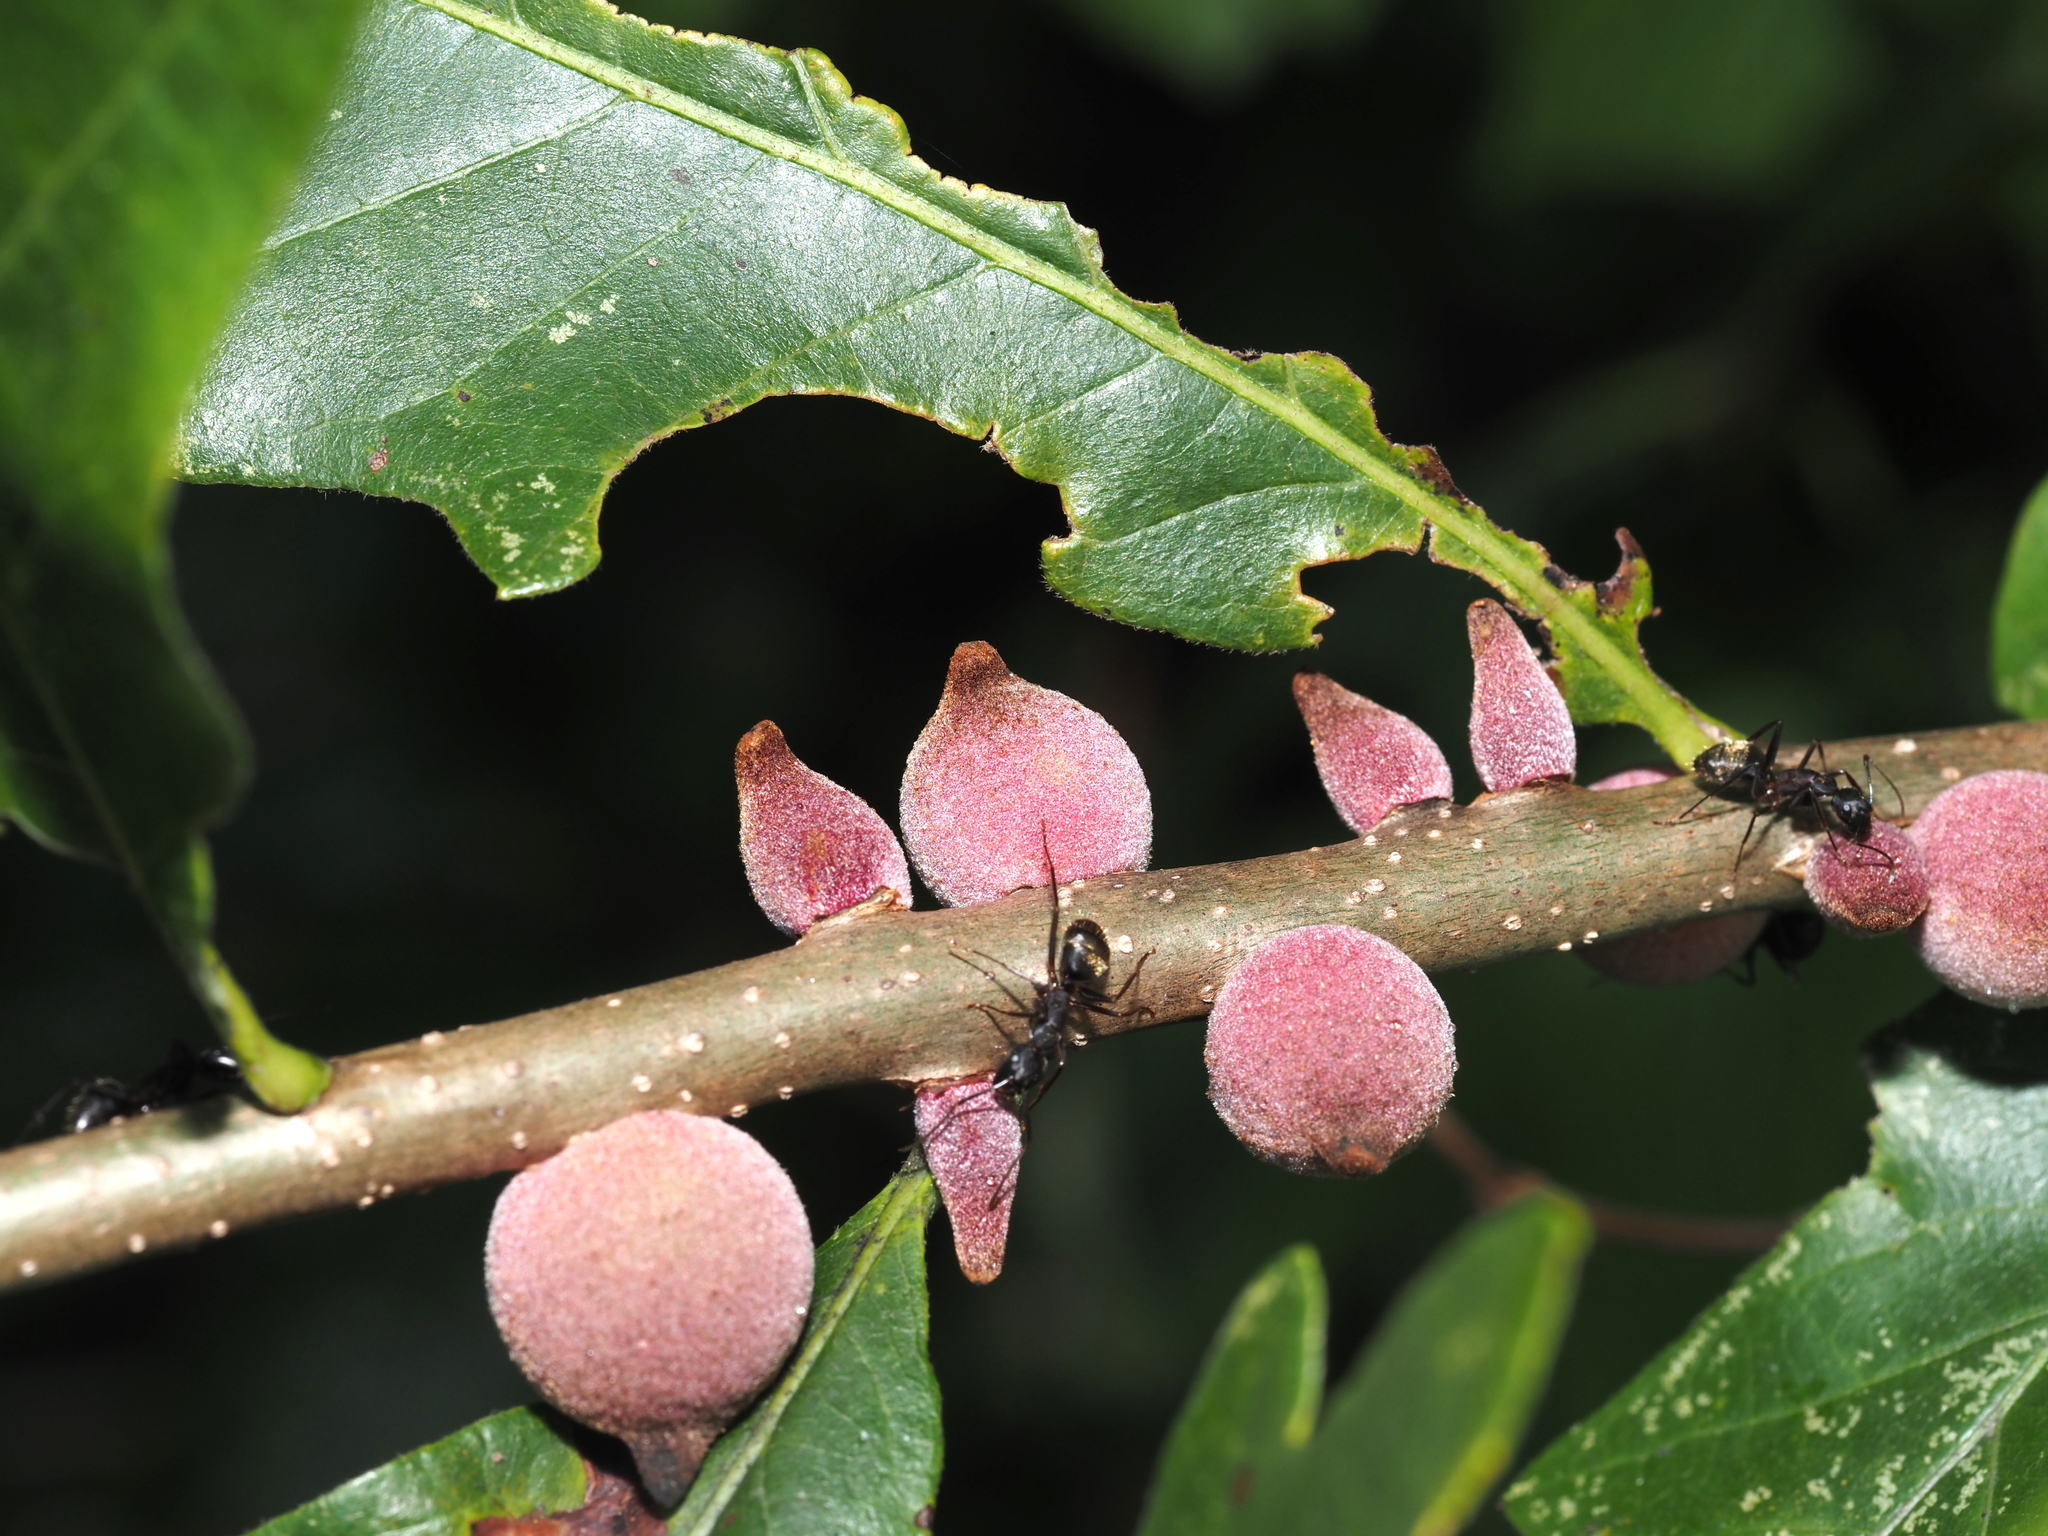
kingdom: Animalia
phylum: Arthropoda
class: Insecta
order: Hymenoptera
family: Cynipidae
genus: Disholcaspis
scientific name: Disholcaspis
